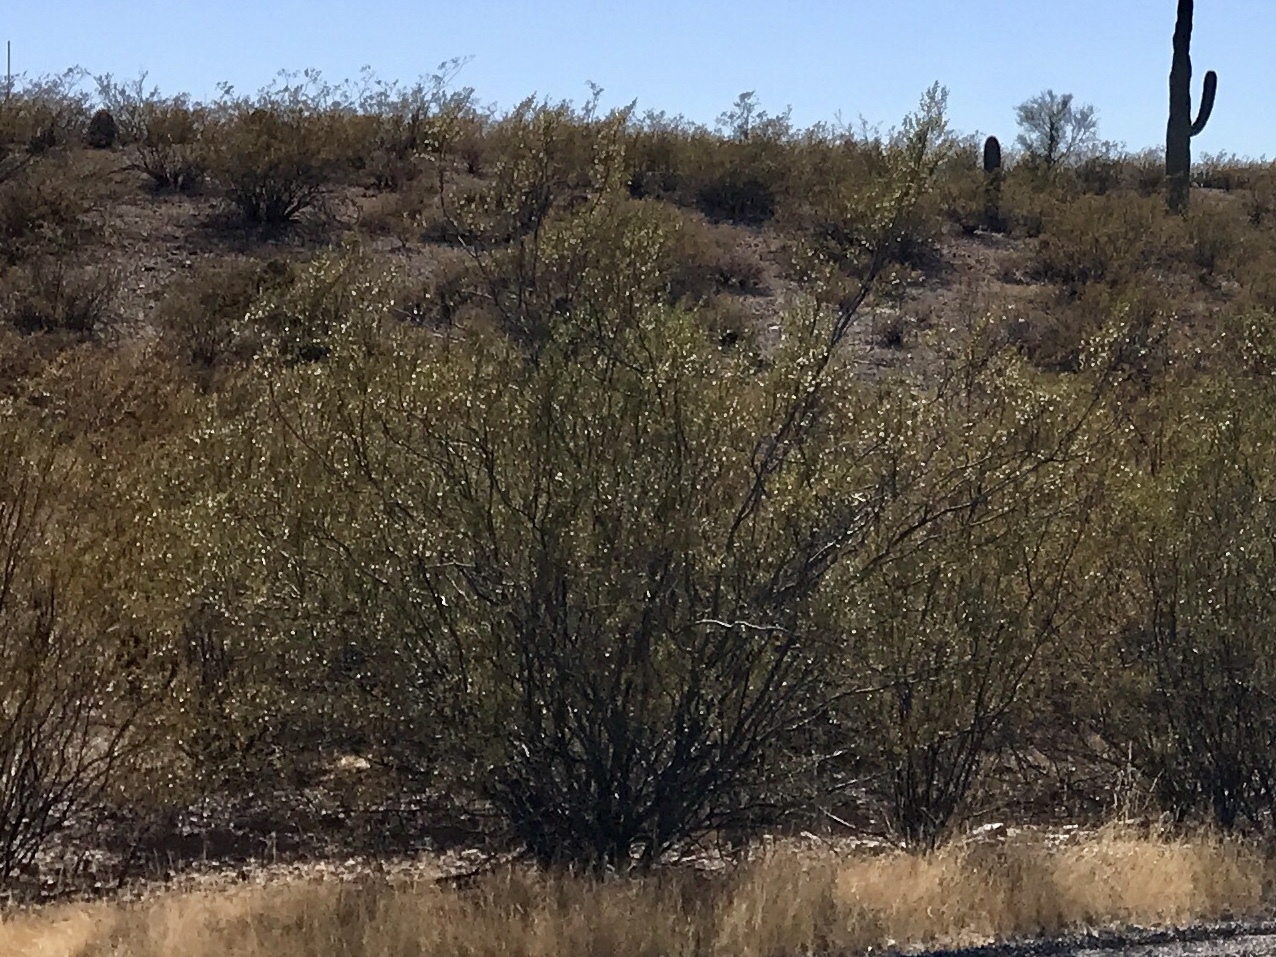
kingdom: Plantae
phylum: Tracheophyta
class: Magnoliopsida
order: Zygophyllales
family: Zygophyllaceae
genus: Larrea
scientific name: Larrea tridentata
